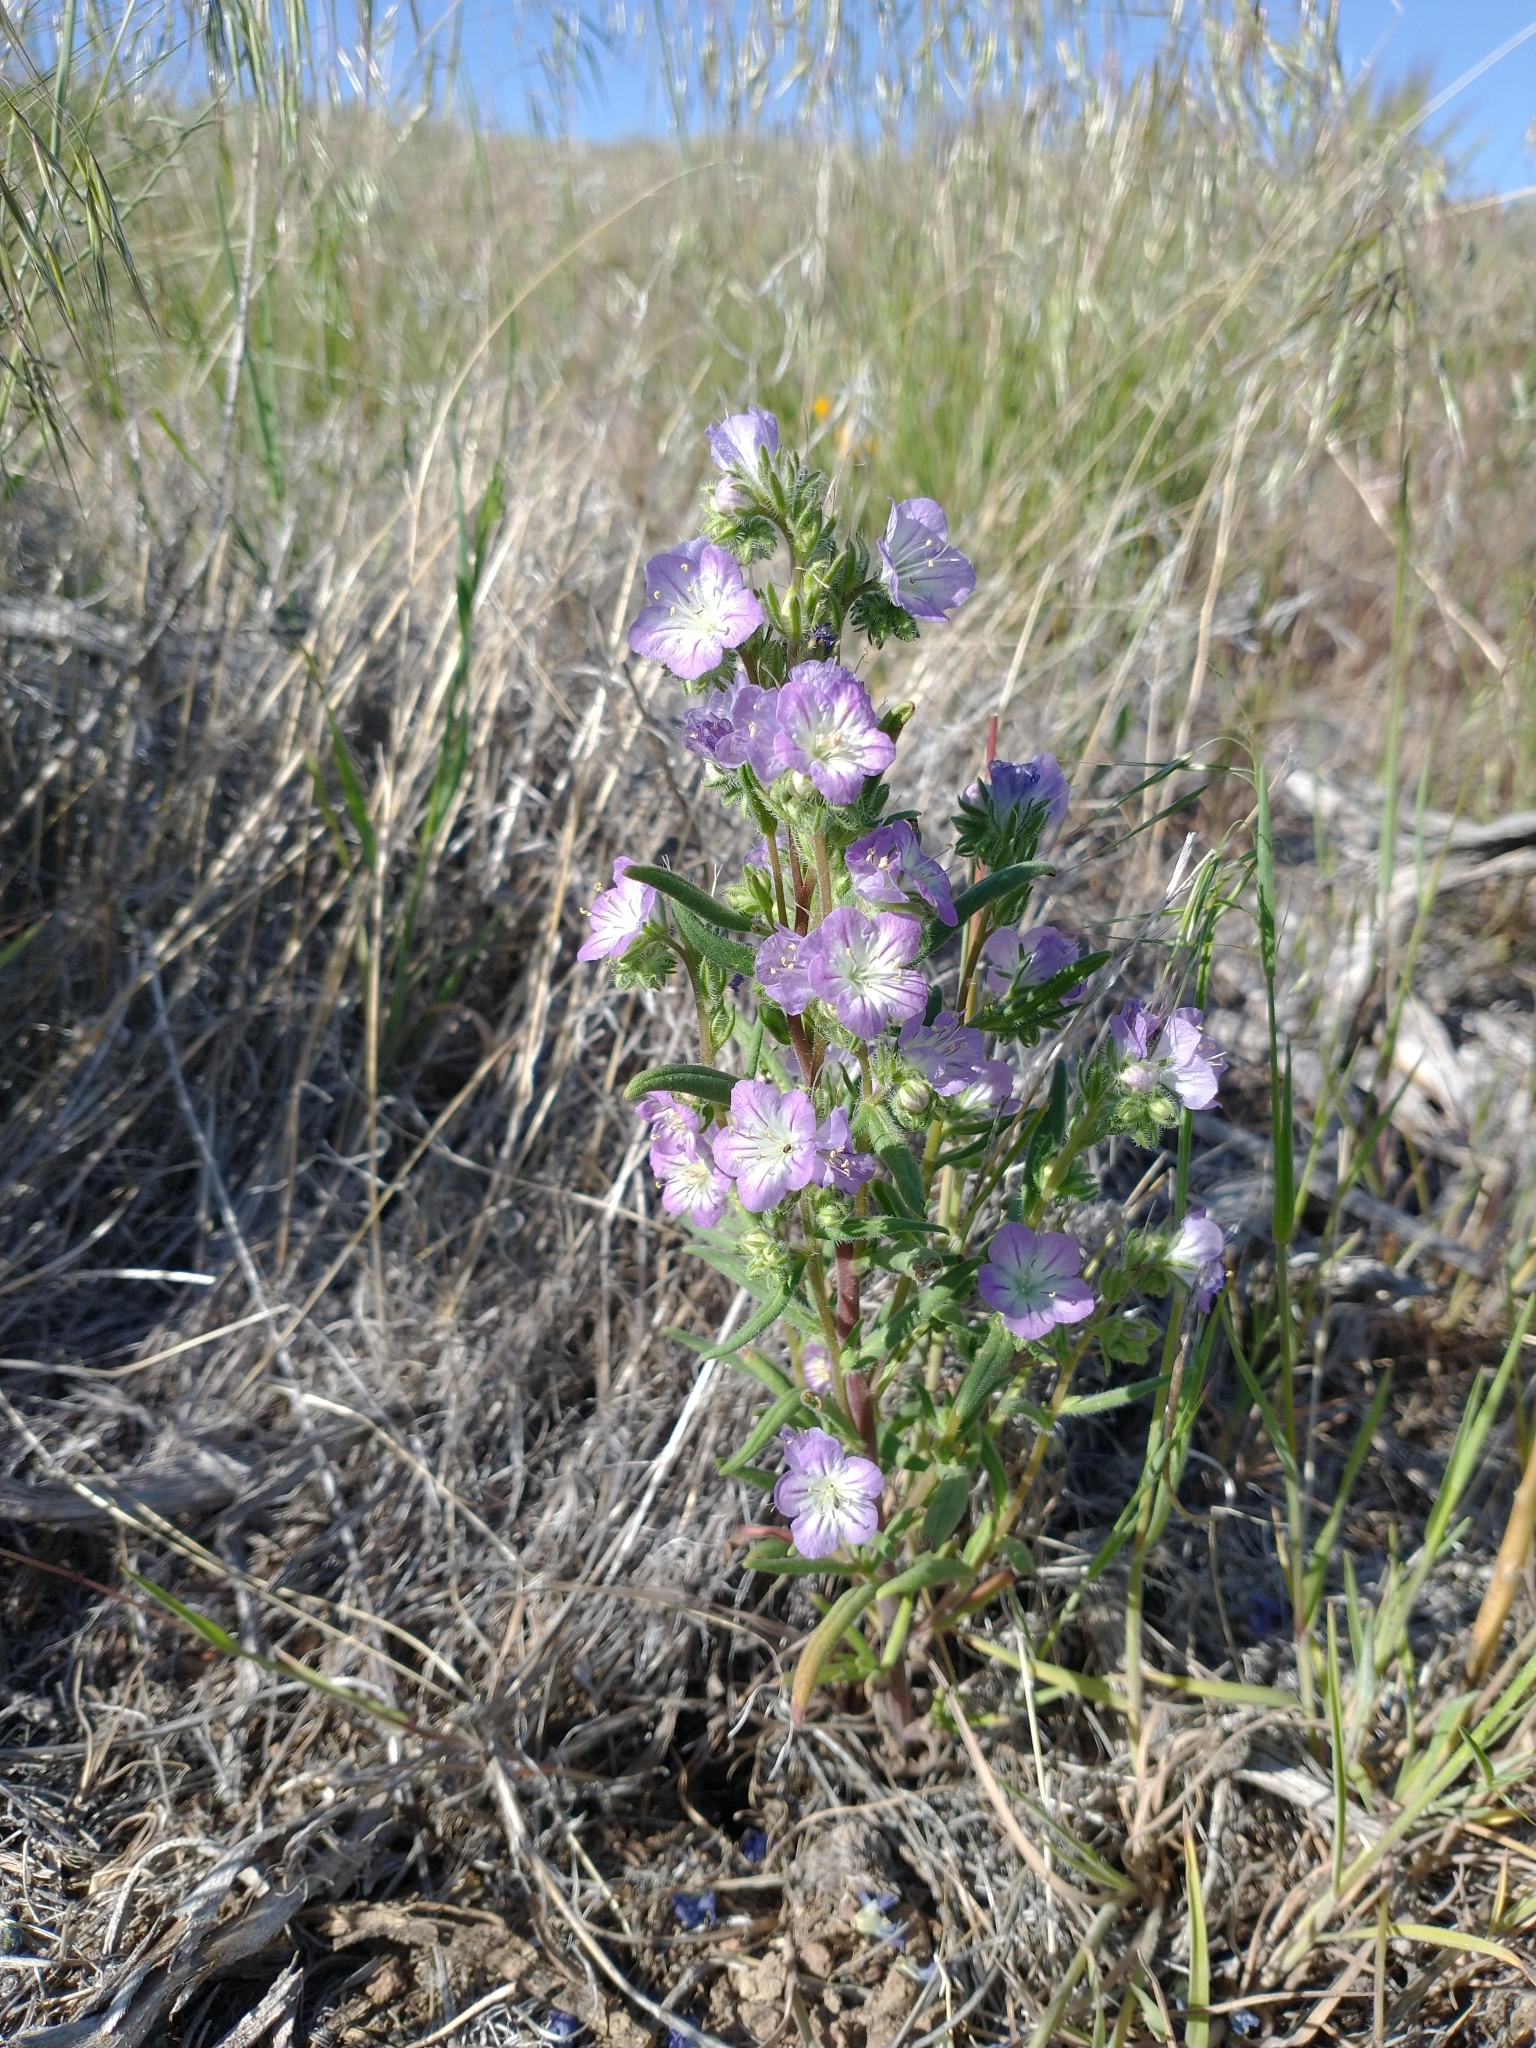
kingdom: Plantae
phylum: Tracheophyta
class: Magnoliopsida
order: Boraginales
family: Hydrophyllaceae
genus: Phacelia
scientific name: Phacelia linearis
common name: Linear-leaved phacelia
